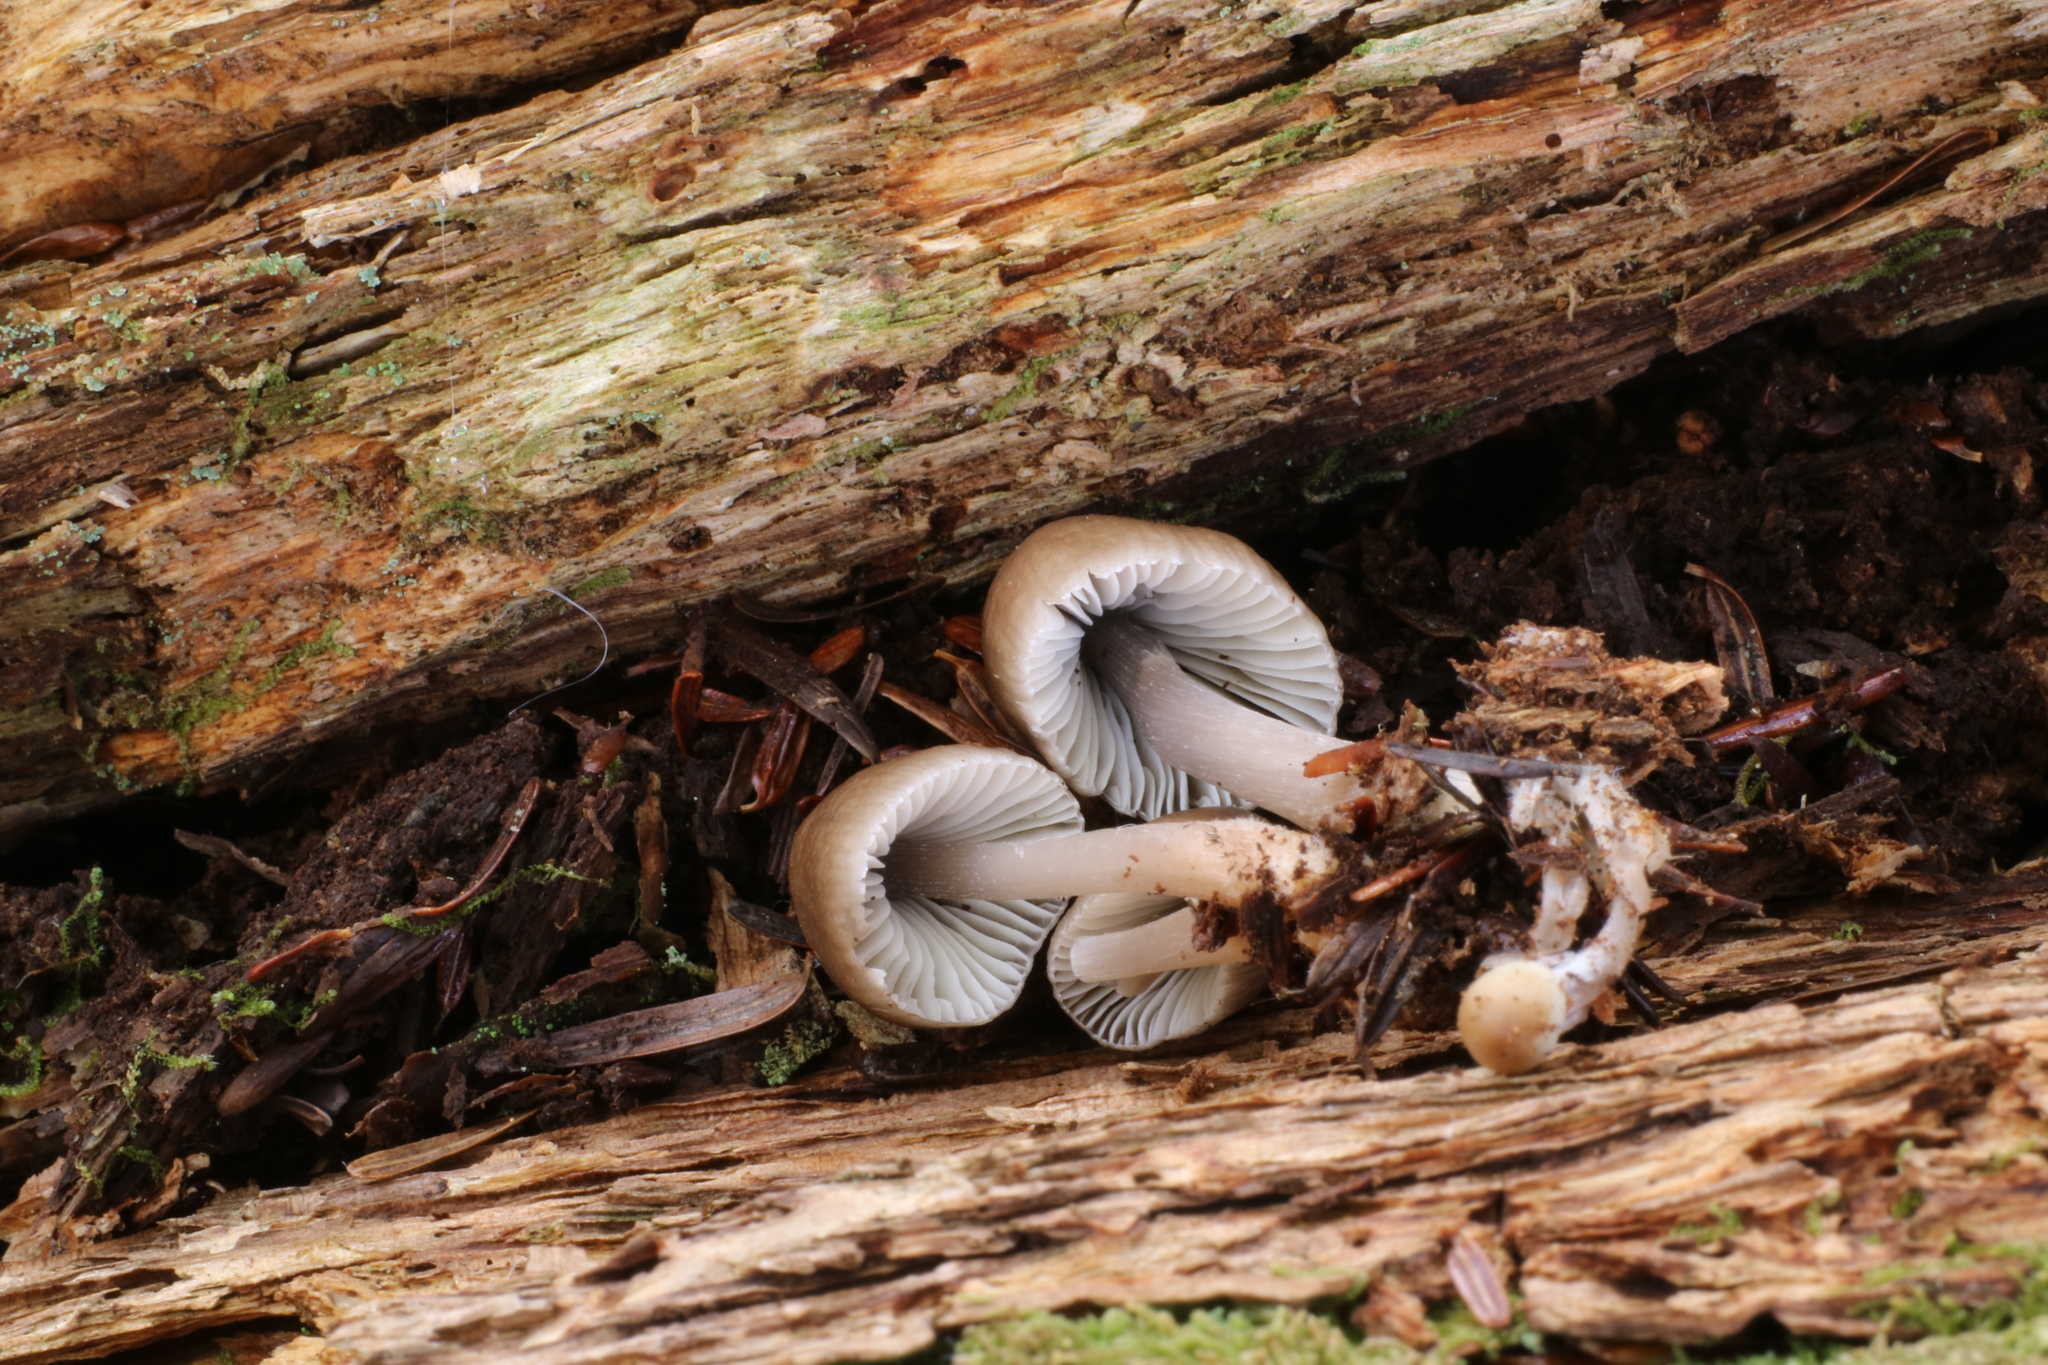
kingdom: Fungi
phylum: Basidiomycota
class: Agaricomycetes
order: Agaricales
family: Mycenaceae
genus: Mycena
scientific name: Mycena inclinata
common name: Clustered bonnet
